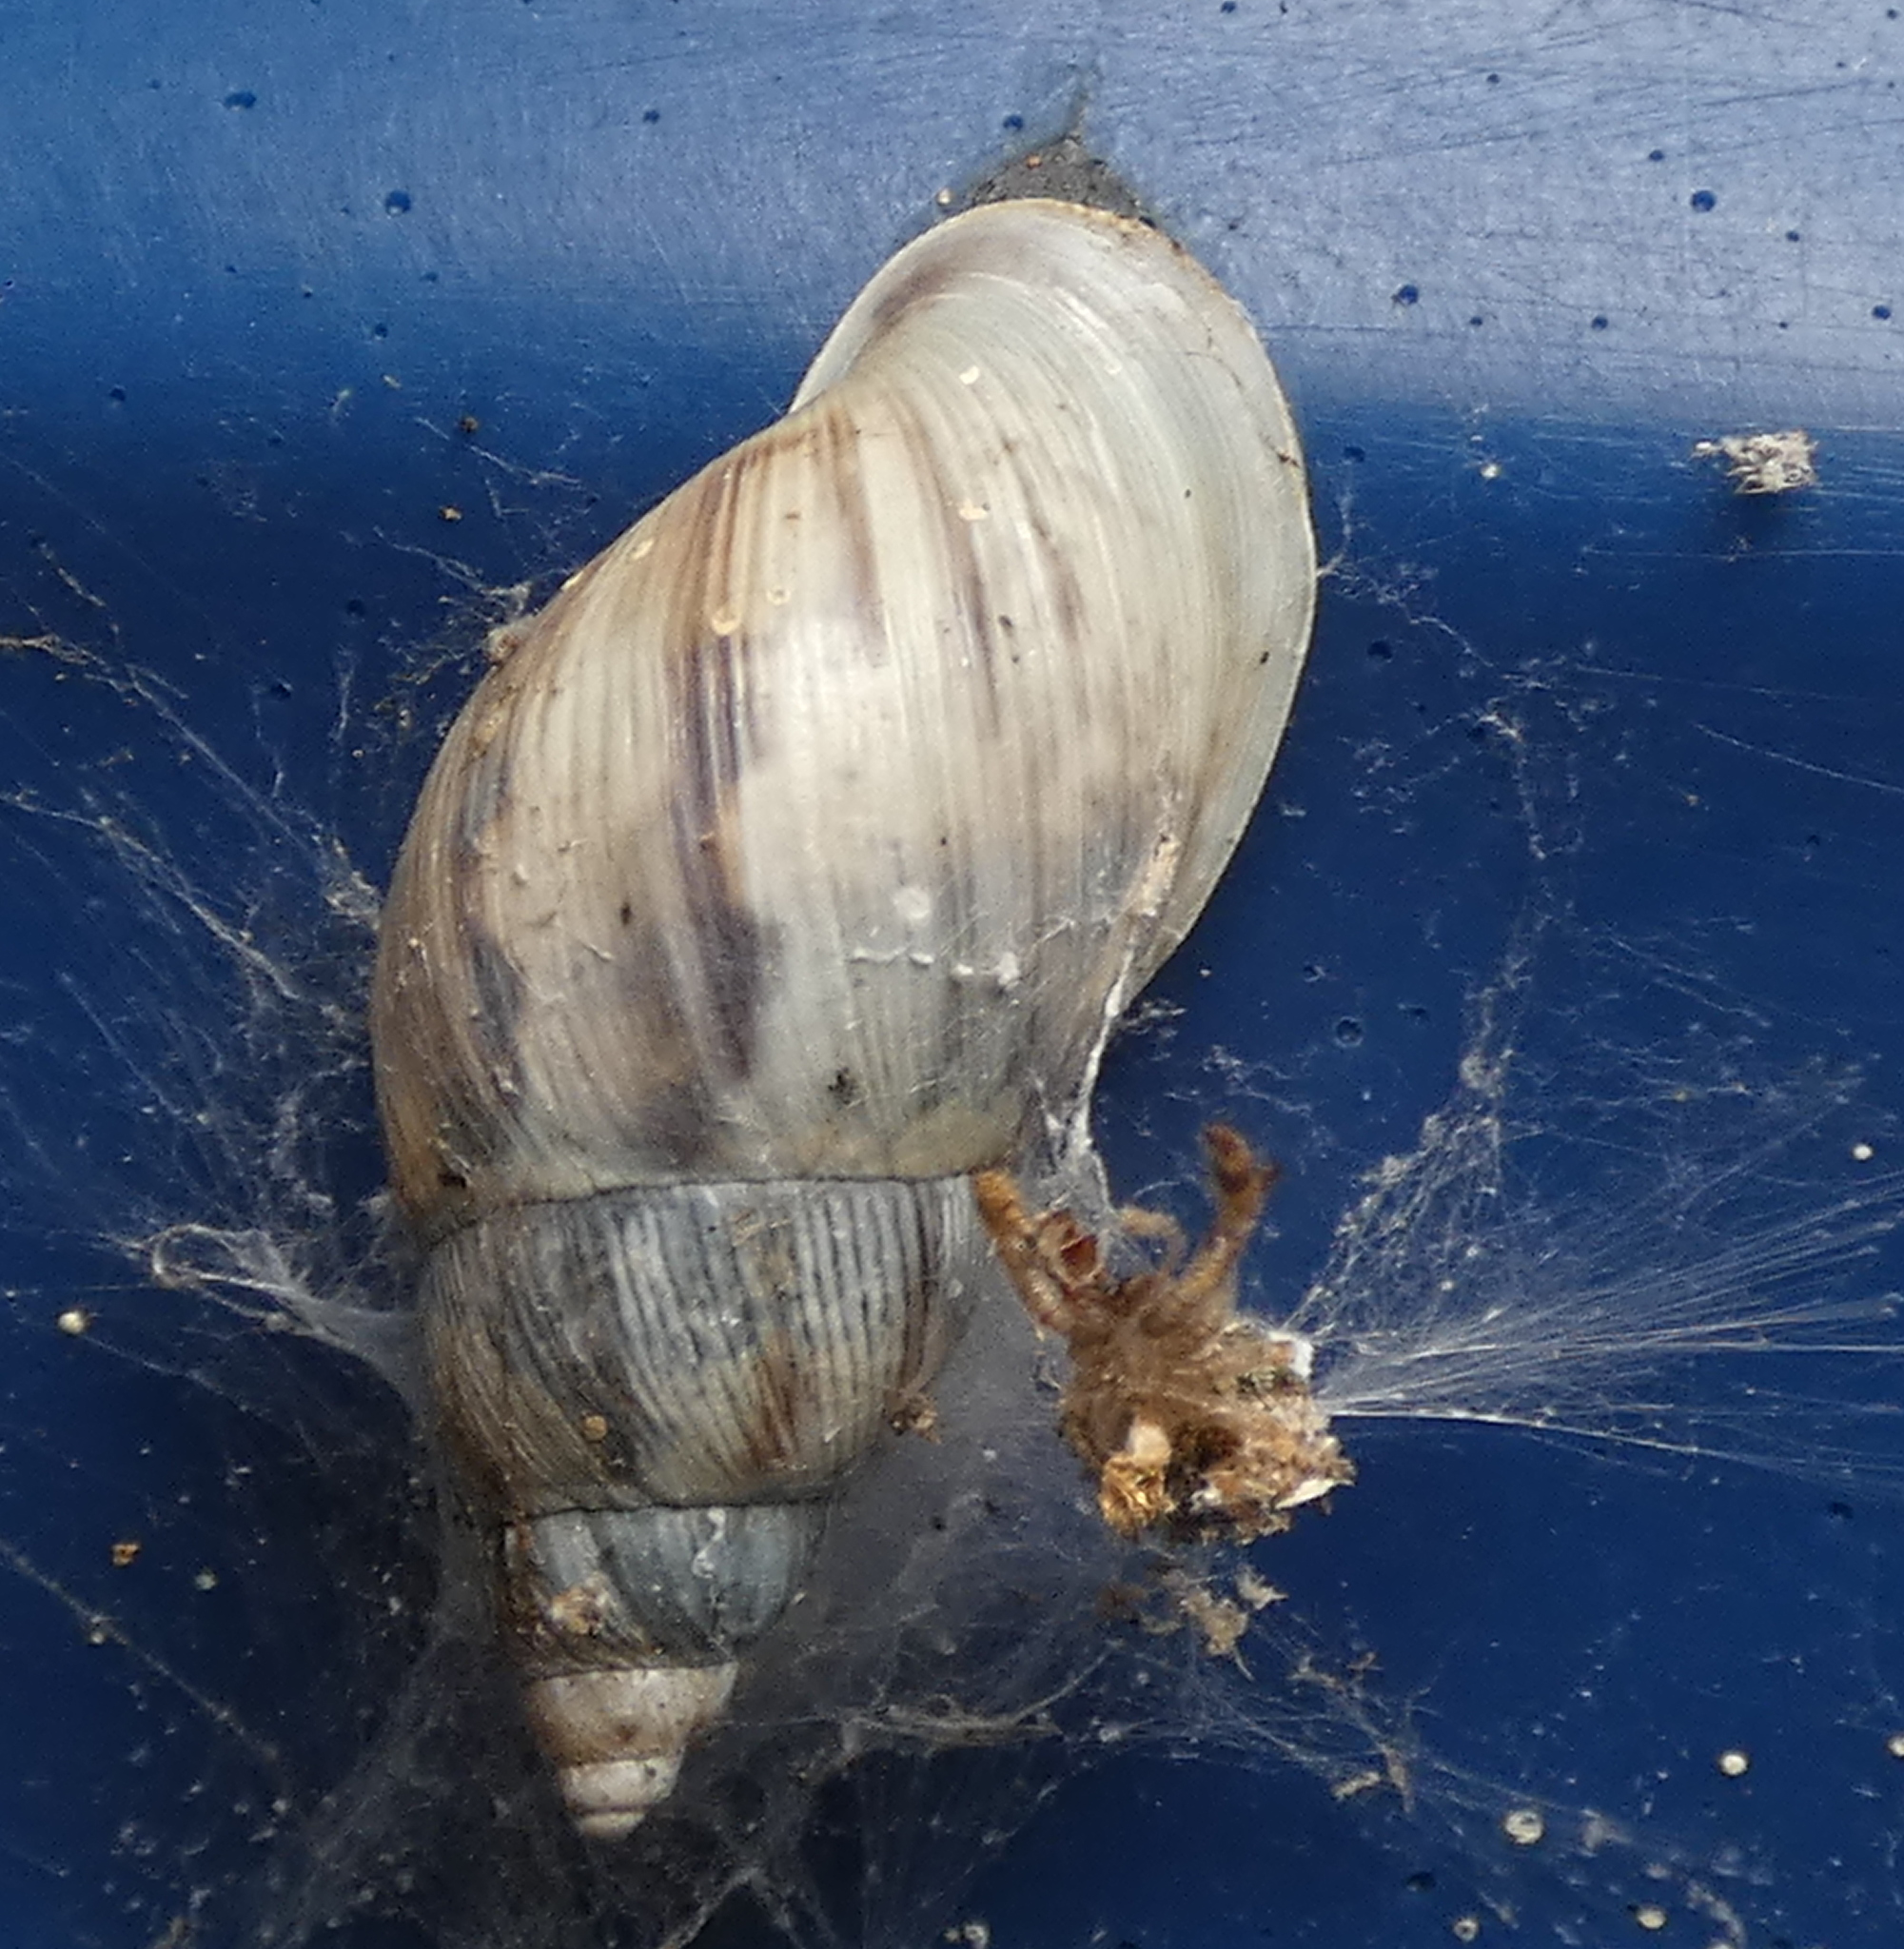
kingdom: Animalia
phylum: Mollusca
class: Gastropoda
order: Stylommatophora
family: Bulimulidae
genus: Drymaeus
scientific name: Drymaeus papyraceus
